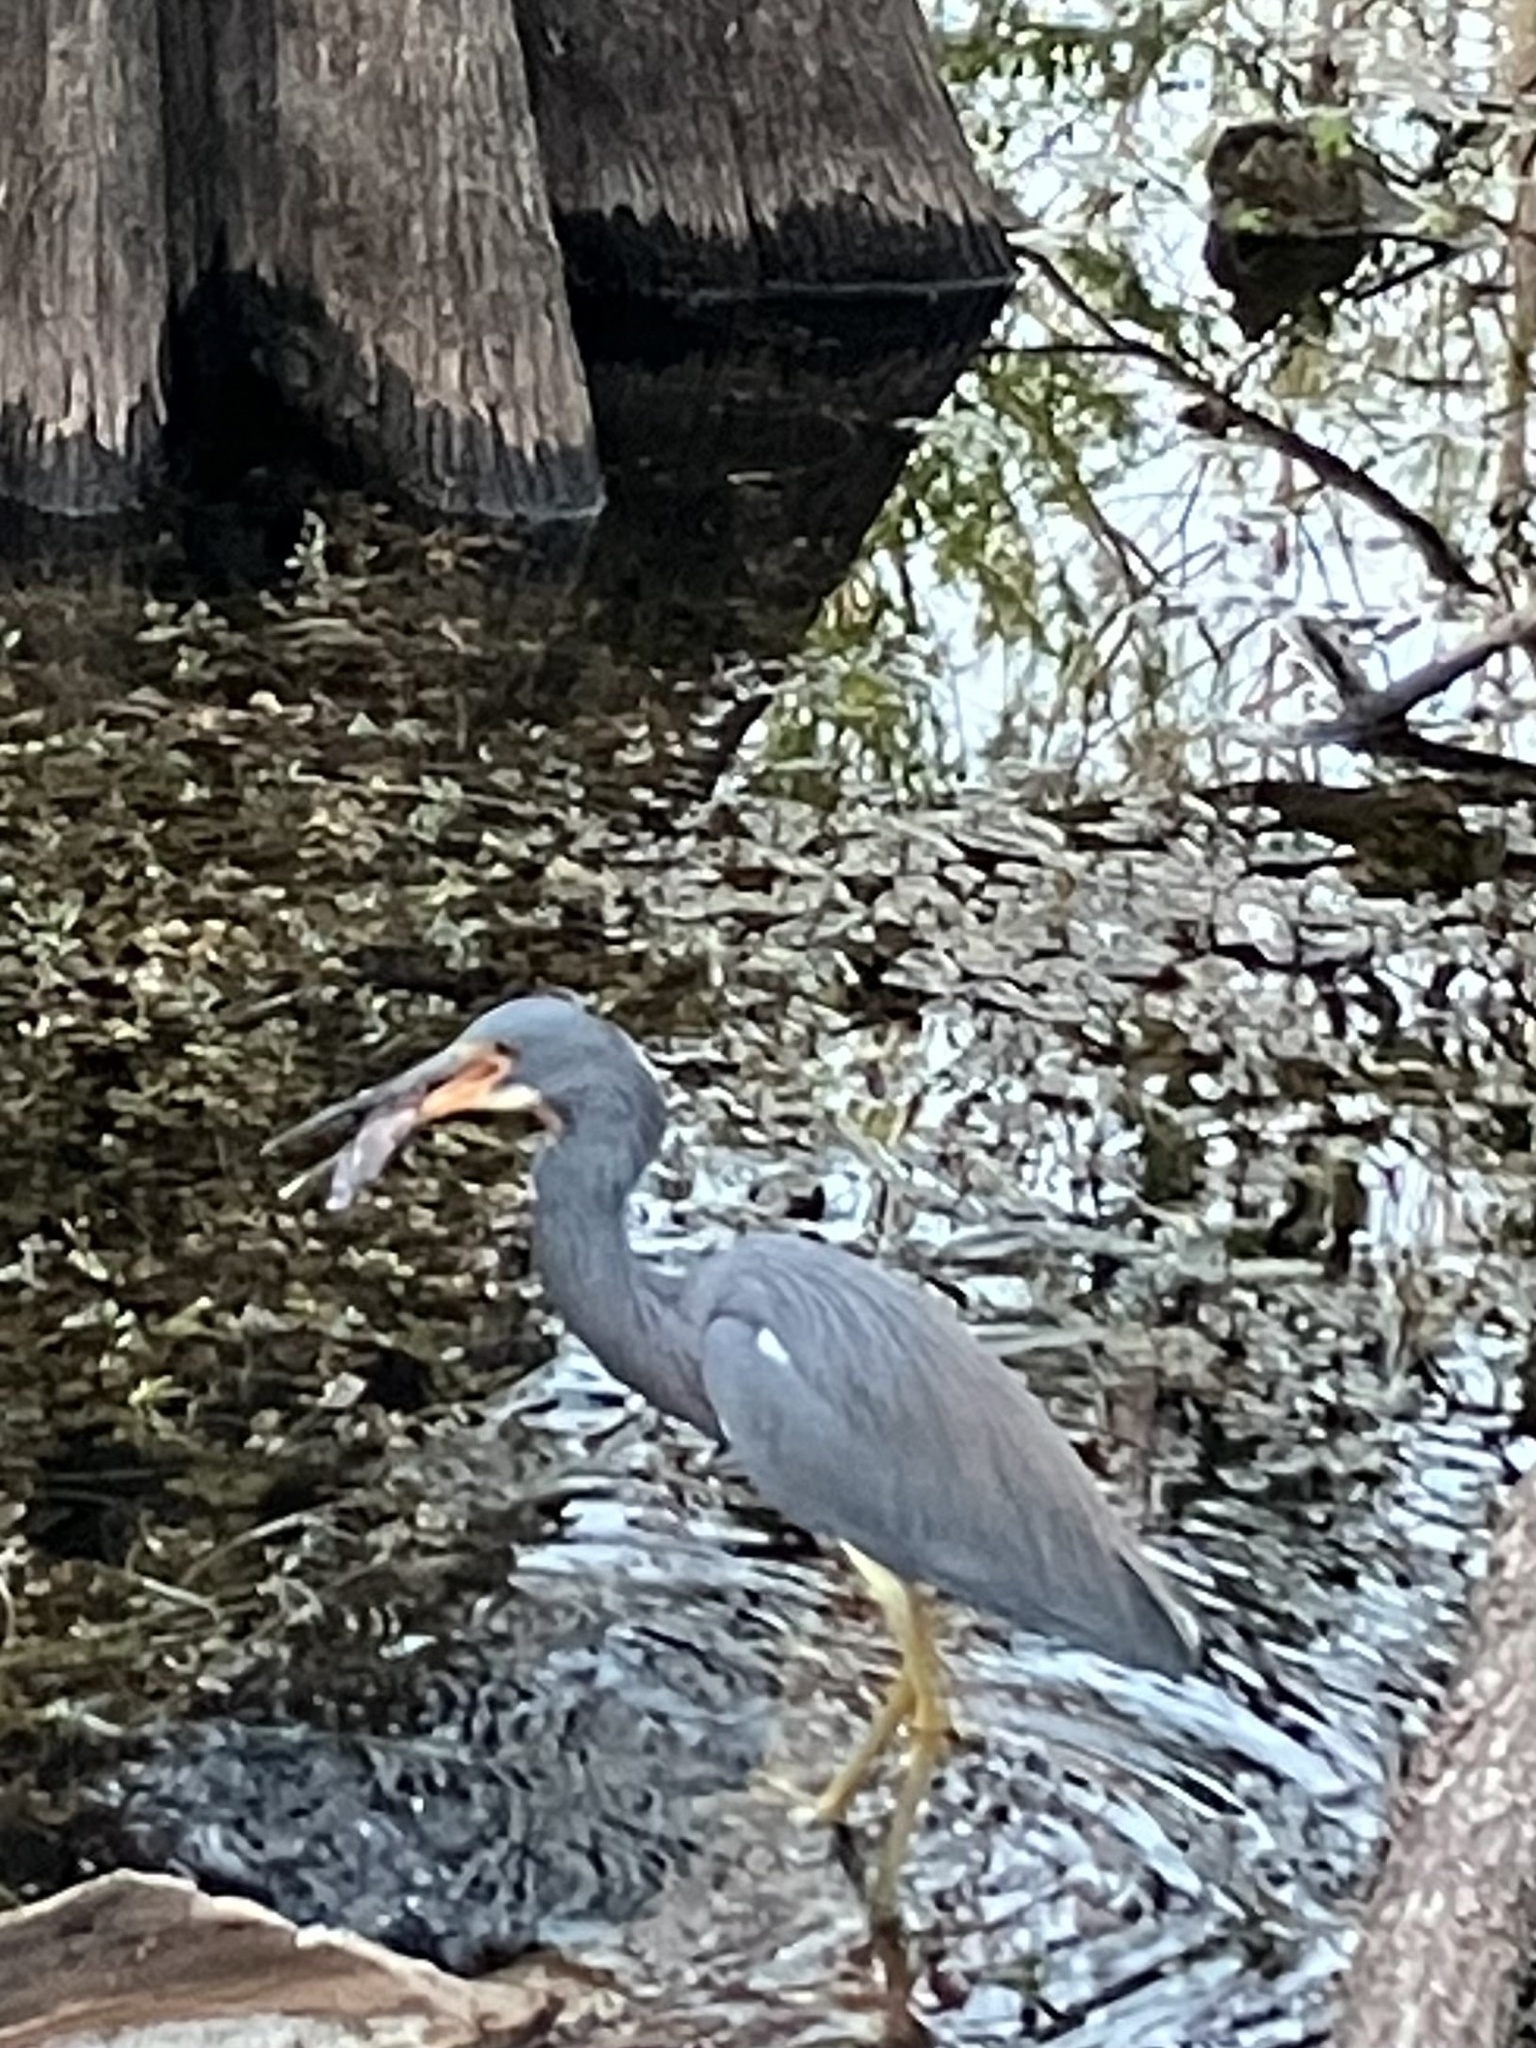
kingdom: Animalia
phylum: Chordata
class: Aves
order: Pelecaniformes
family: Ardeidae
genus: Egretta
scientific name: Egretta tricolor
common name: Tricolored heron
